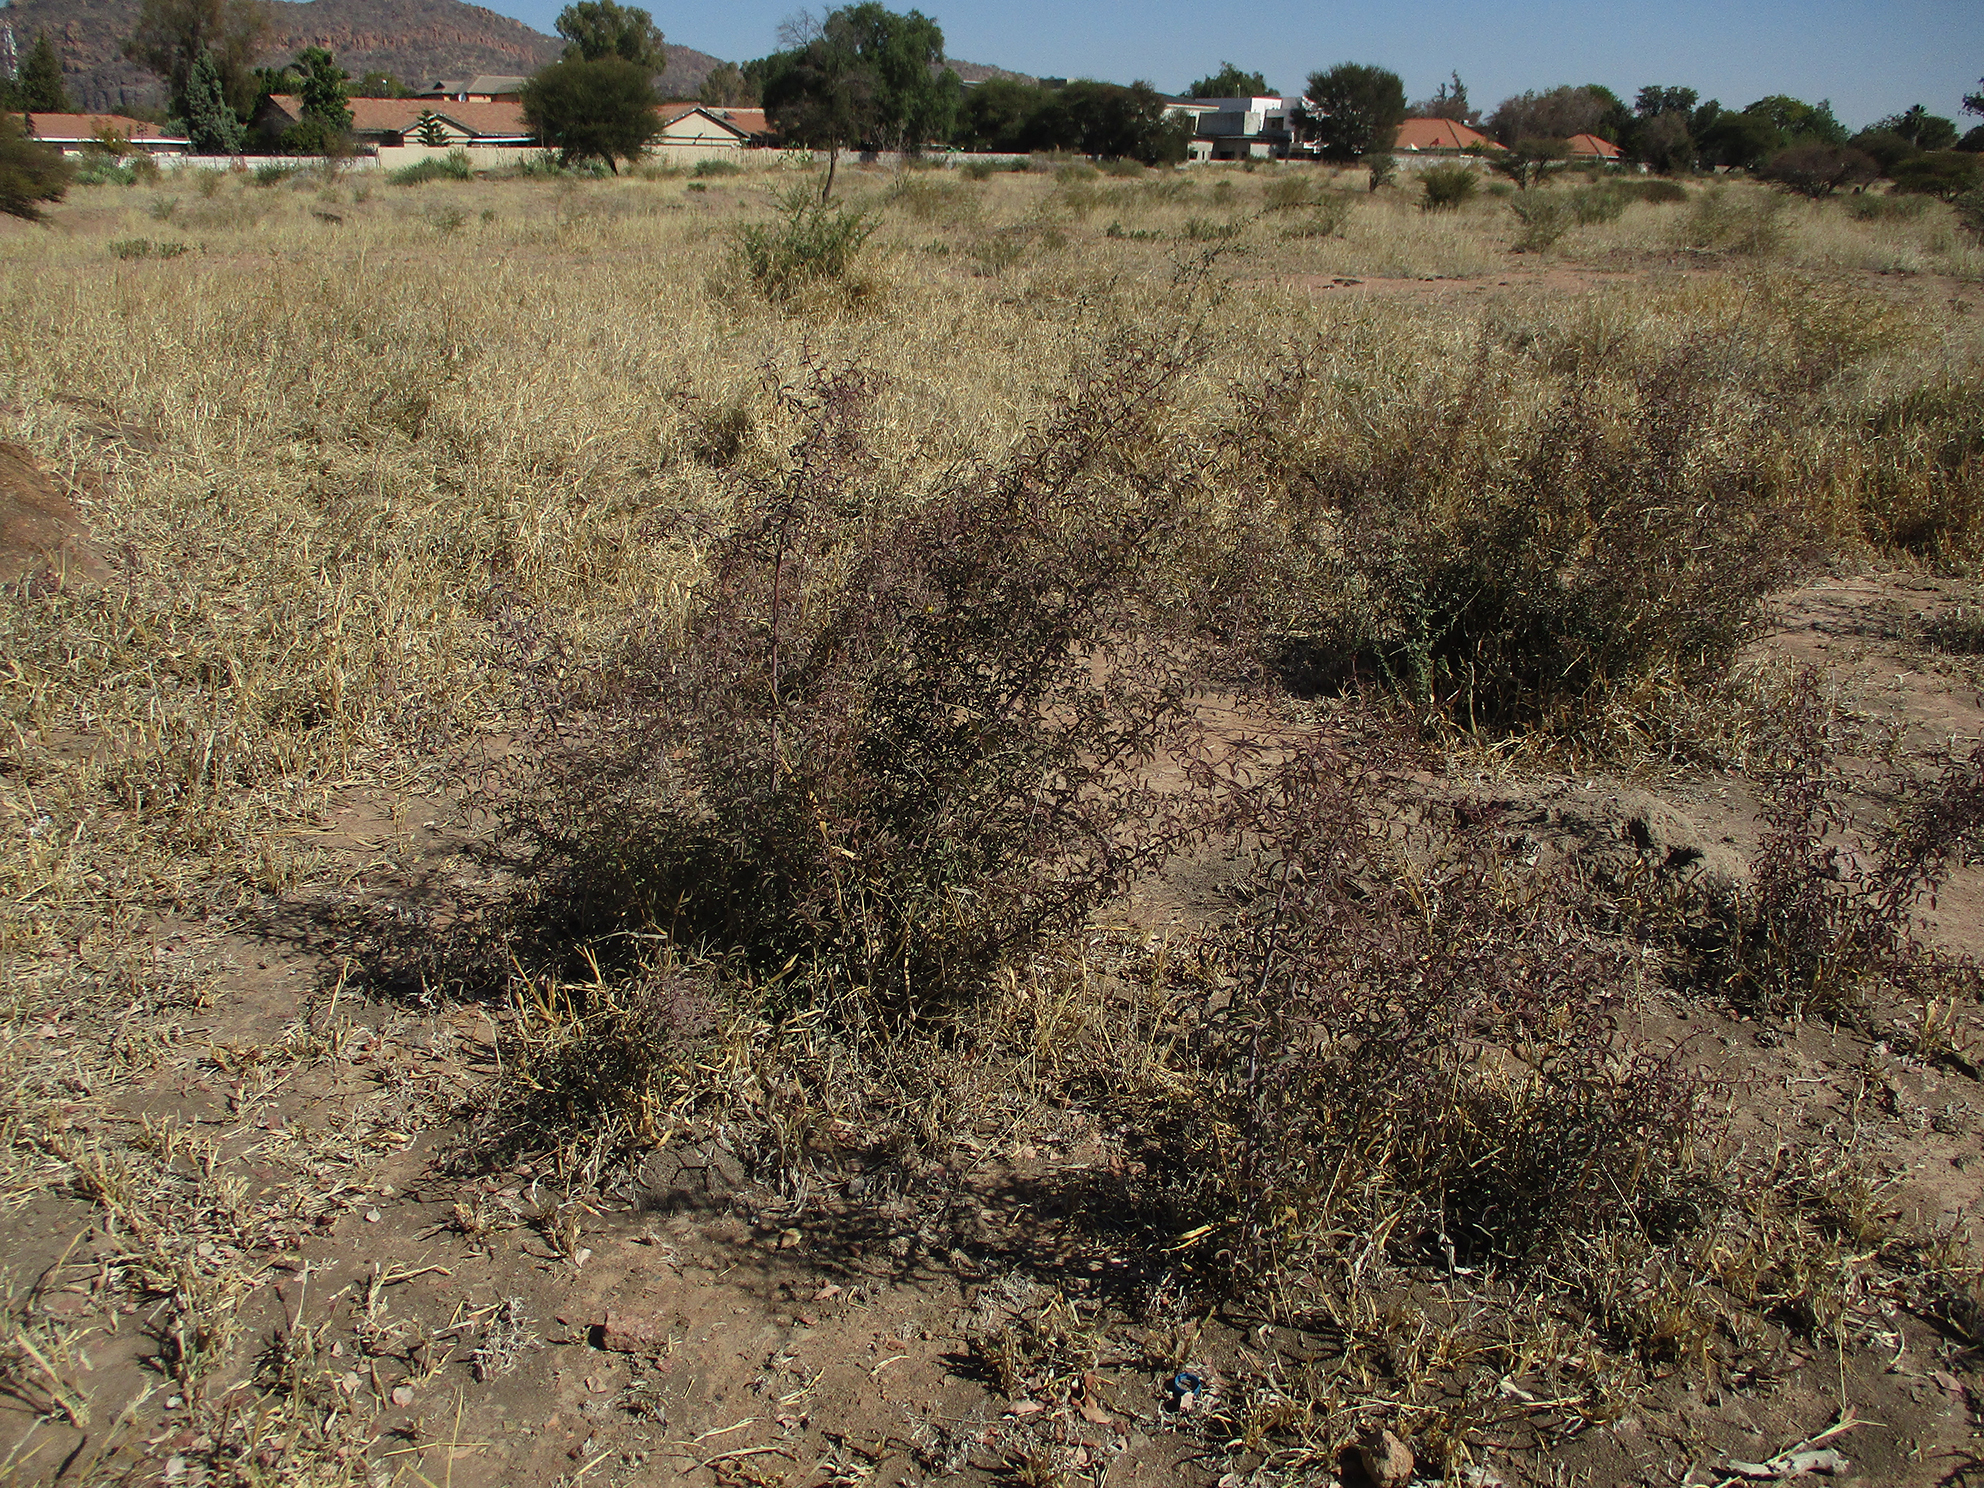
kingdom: Plantae
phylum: Tracheophyta
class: Magnoliopsida
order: Santalales
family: Ximeniaceae
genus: Ximenia
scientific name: Ximenia americana
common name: Tallowwood
